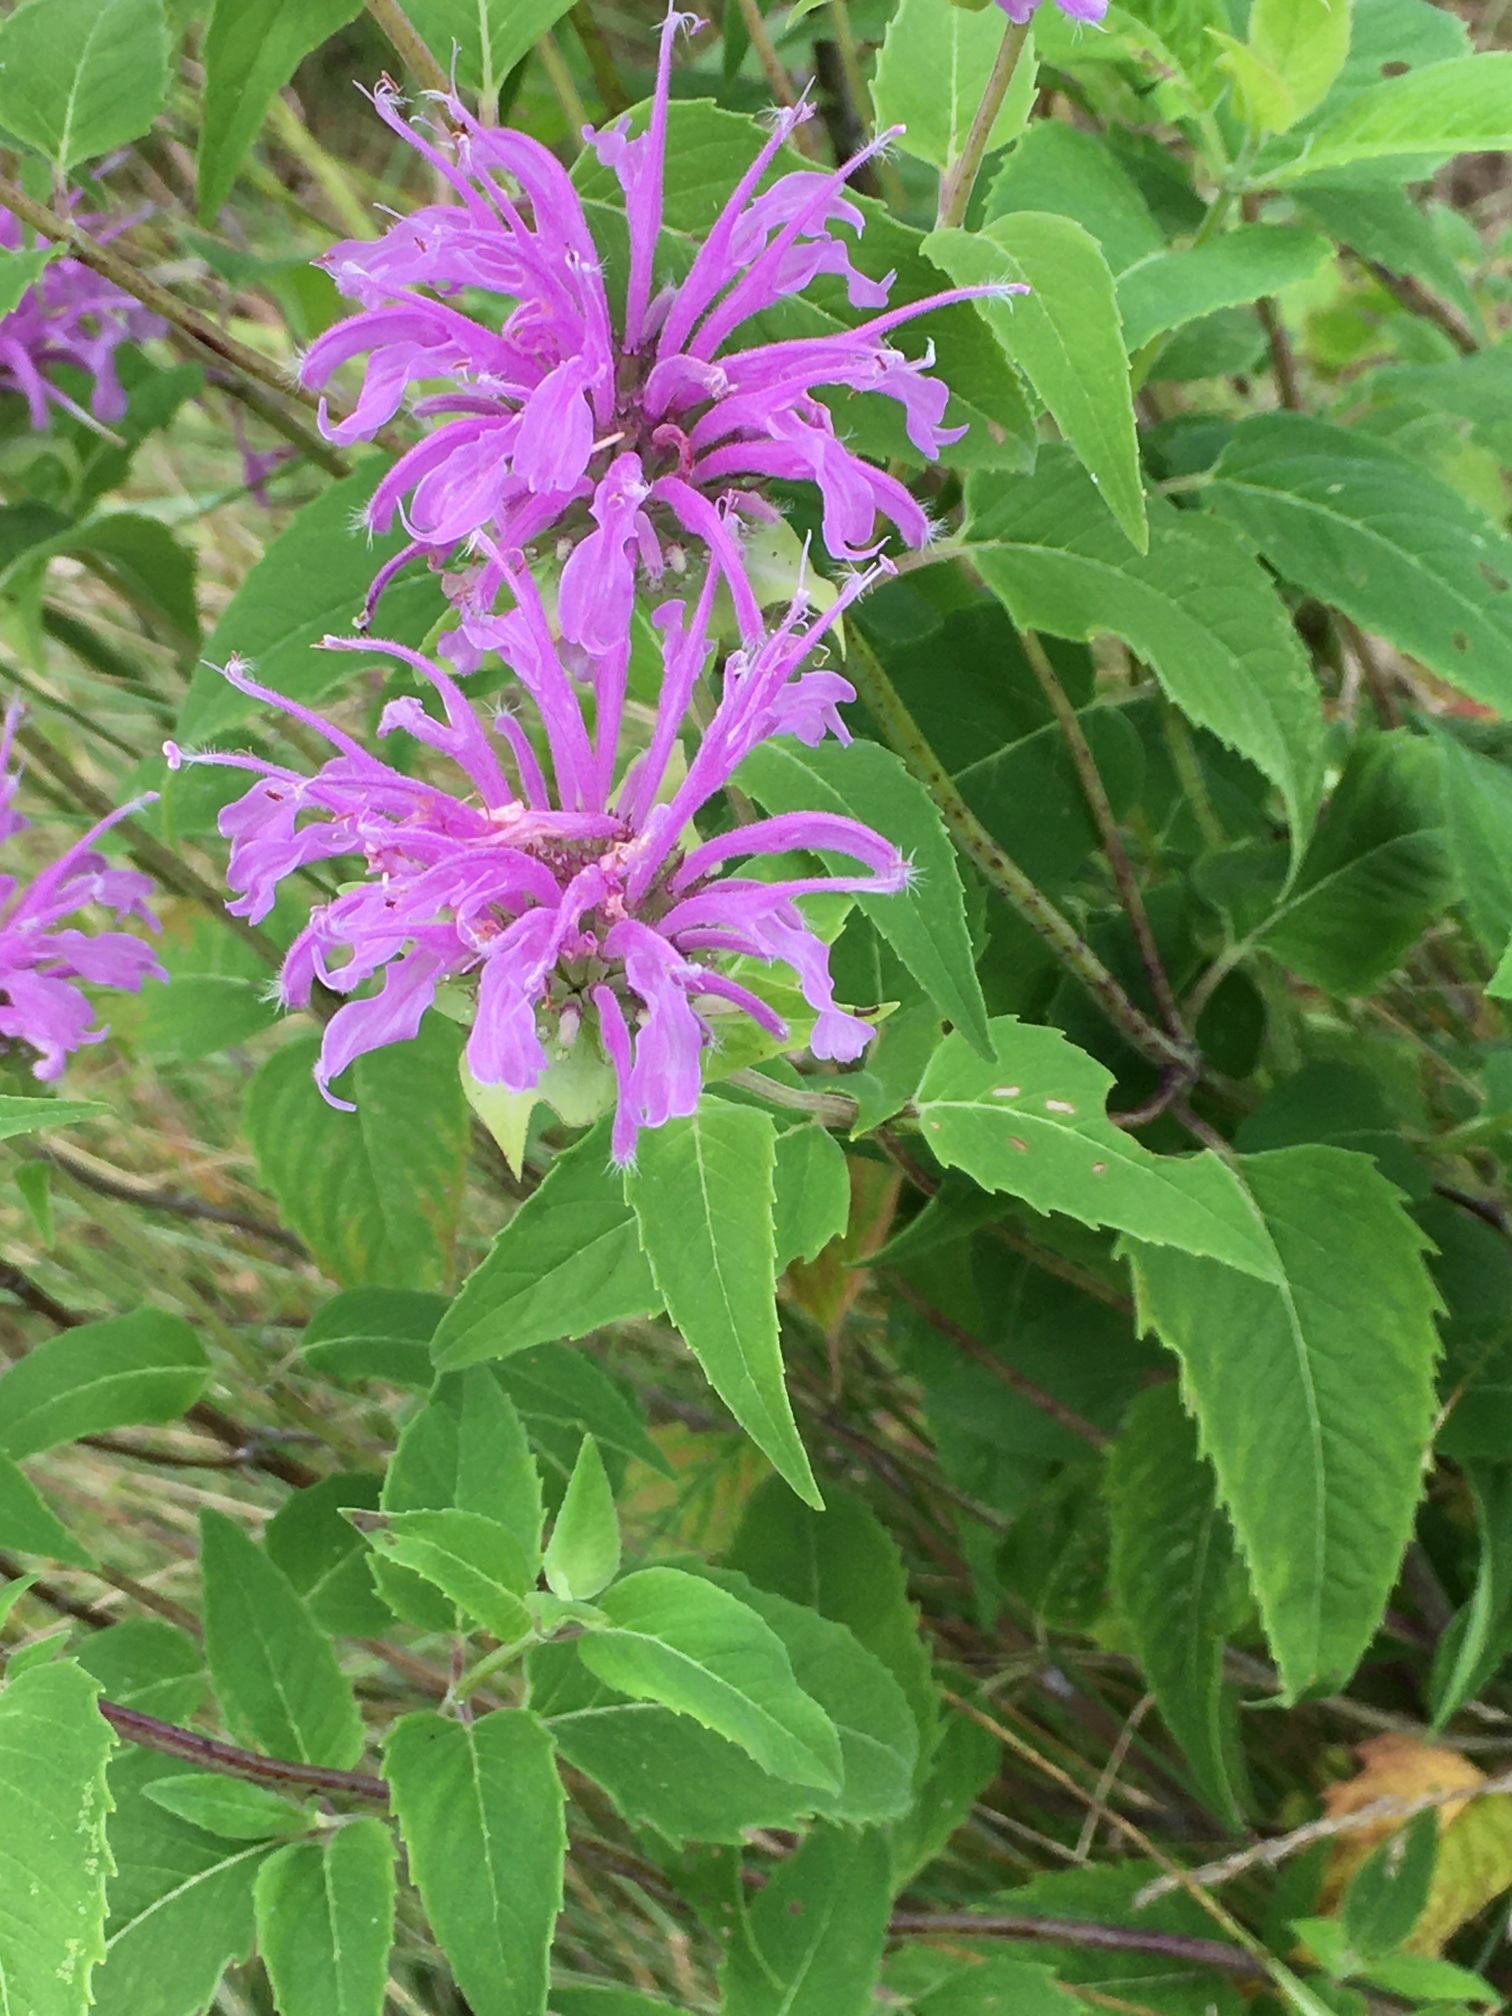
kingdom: Plantae
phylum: Tracheophyta
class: Magnoliopsida
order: Lamiales
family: Lamiaceae
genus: Monarda
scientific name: Monarda fistulosa
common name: Purple beebalm
